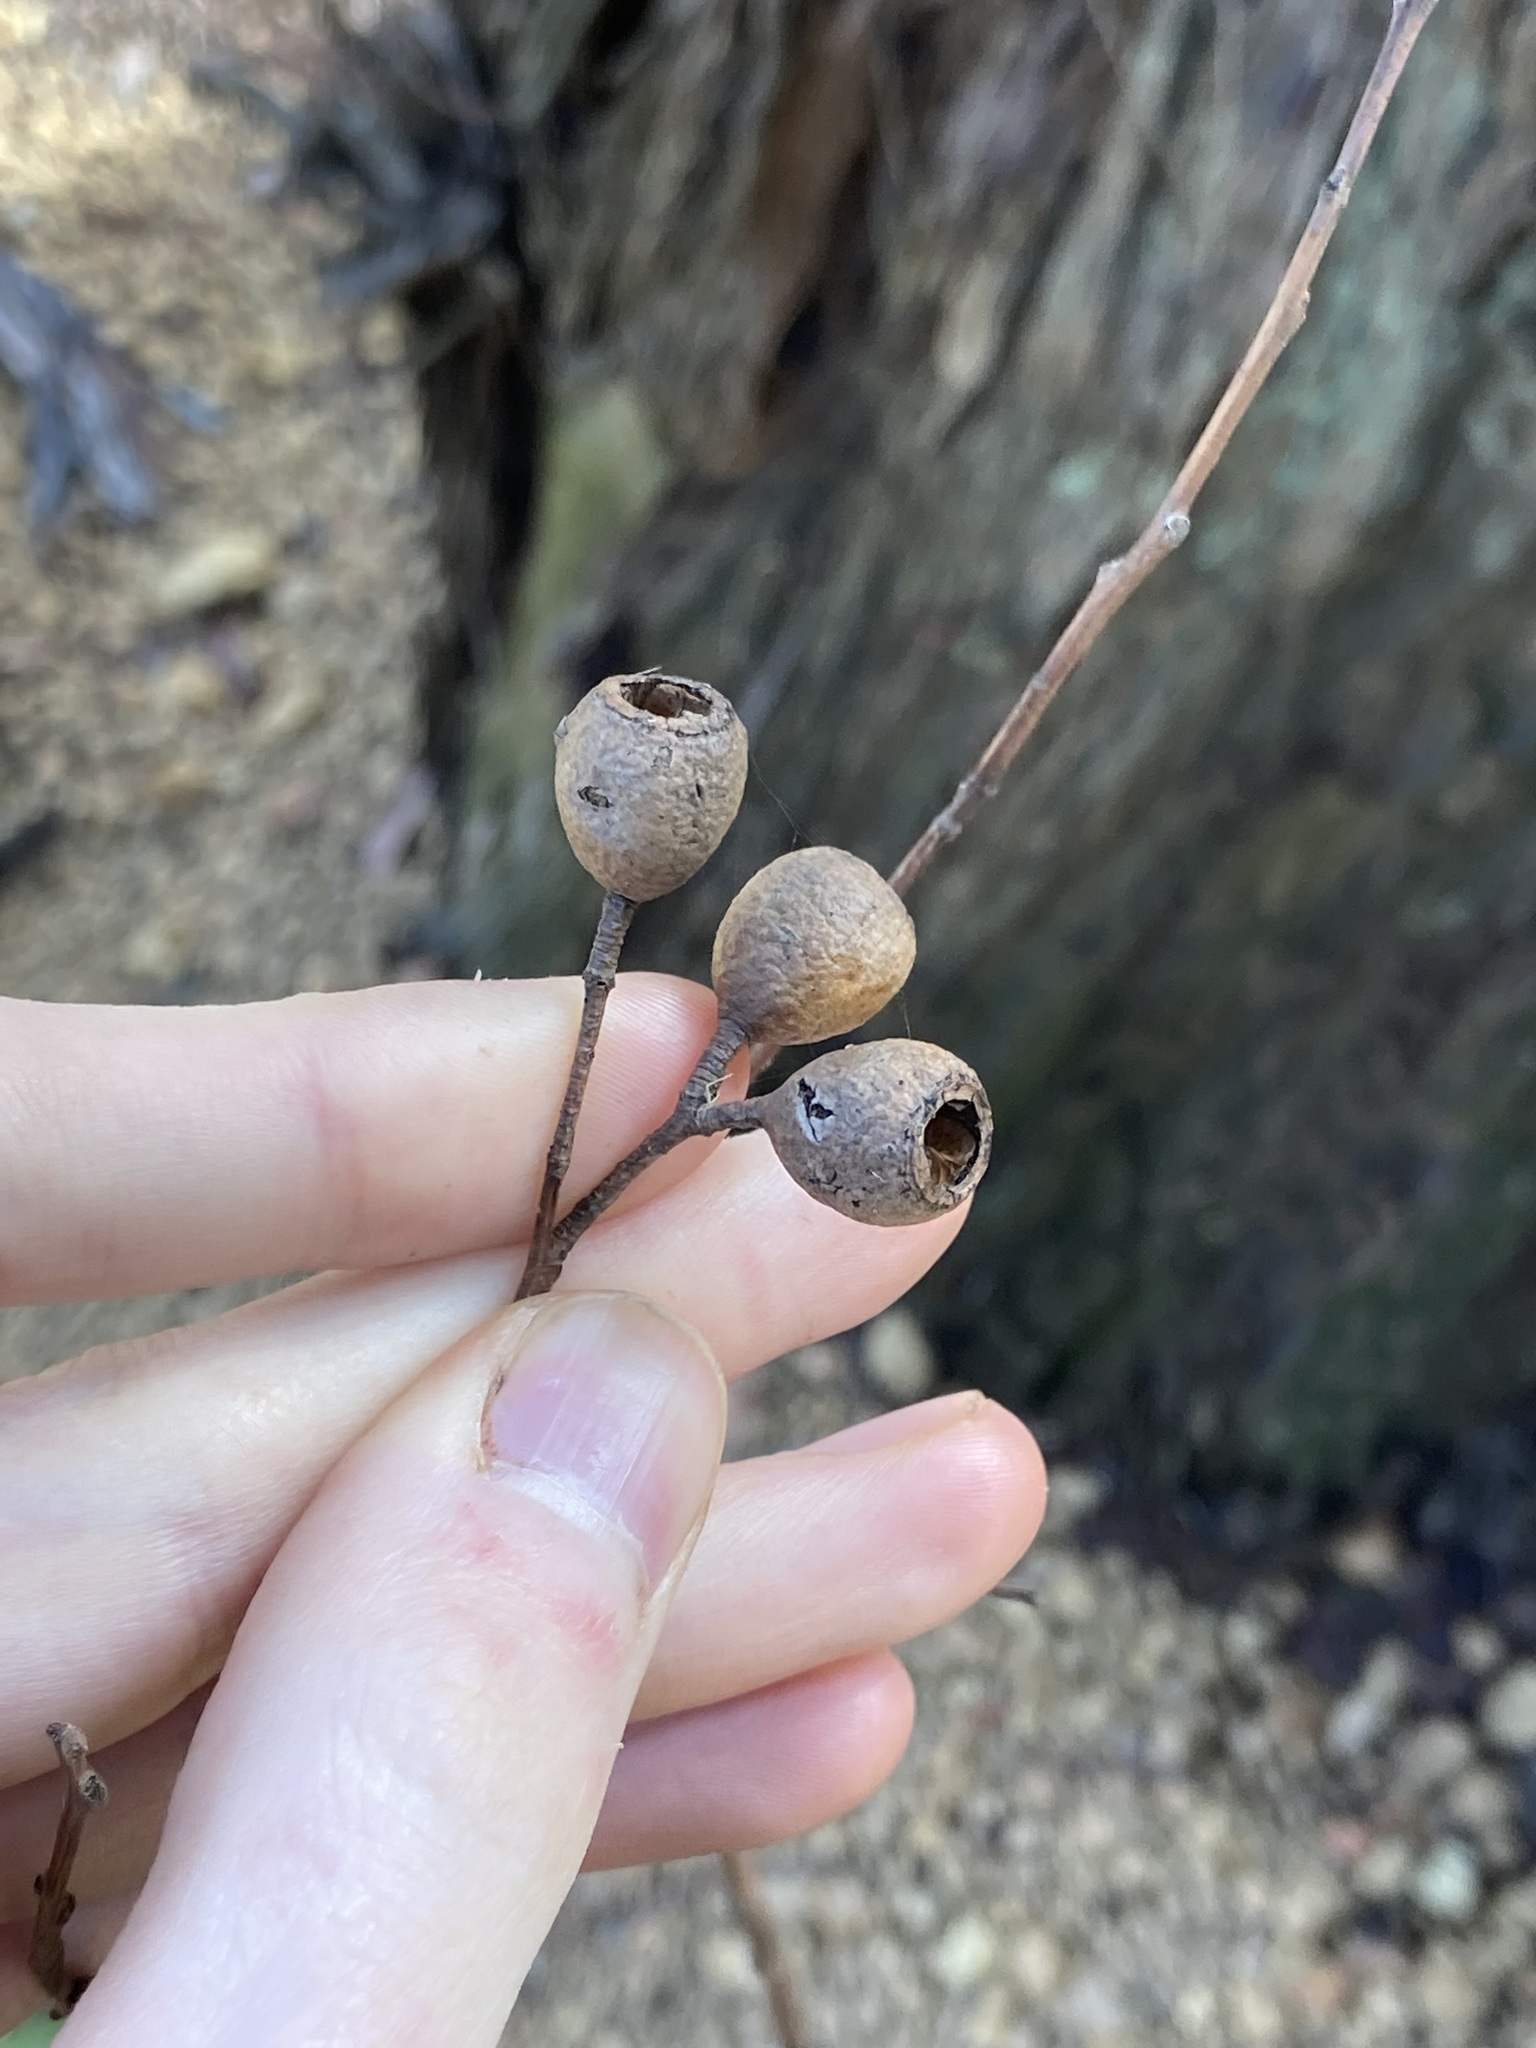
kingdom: Plantae
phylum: Tracheophyta
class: Magnoliopsida
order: Myrtales
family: Myrtaceae
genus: Eucalyptus
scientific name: Eucalyptus marginata
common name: Jarrah
